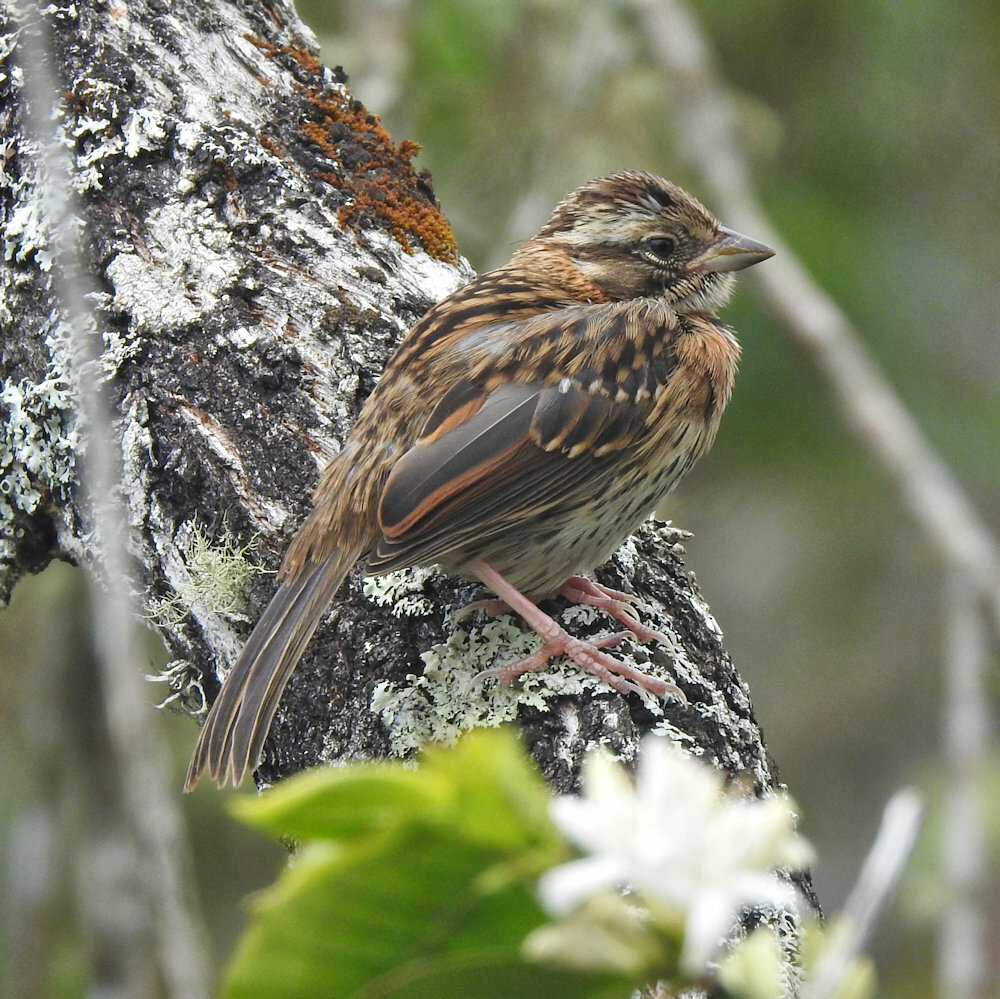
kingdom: Animalia
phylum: Chordata
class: Aves
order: Passeriformes
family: Passerellidae
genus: Zonotrichia
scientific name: Zonotrichia capensis
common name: Rufous-collared sparrow
